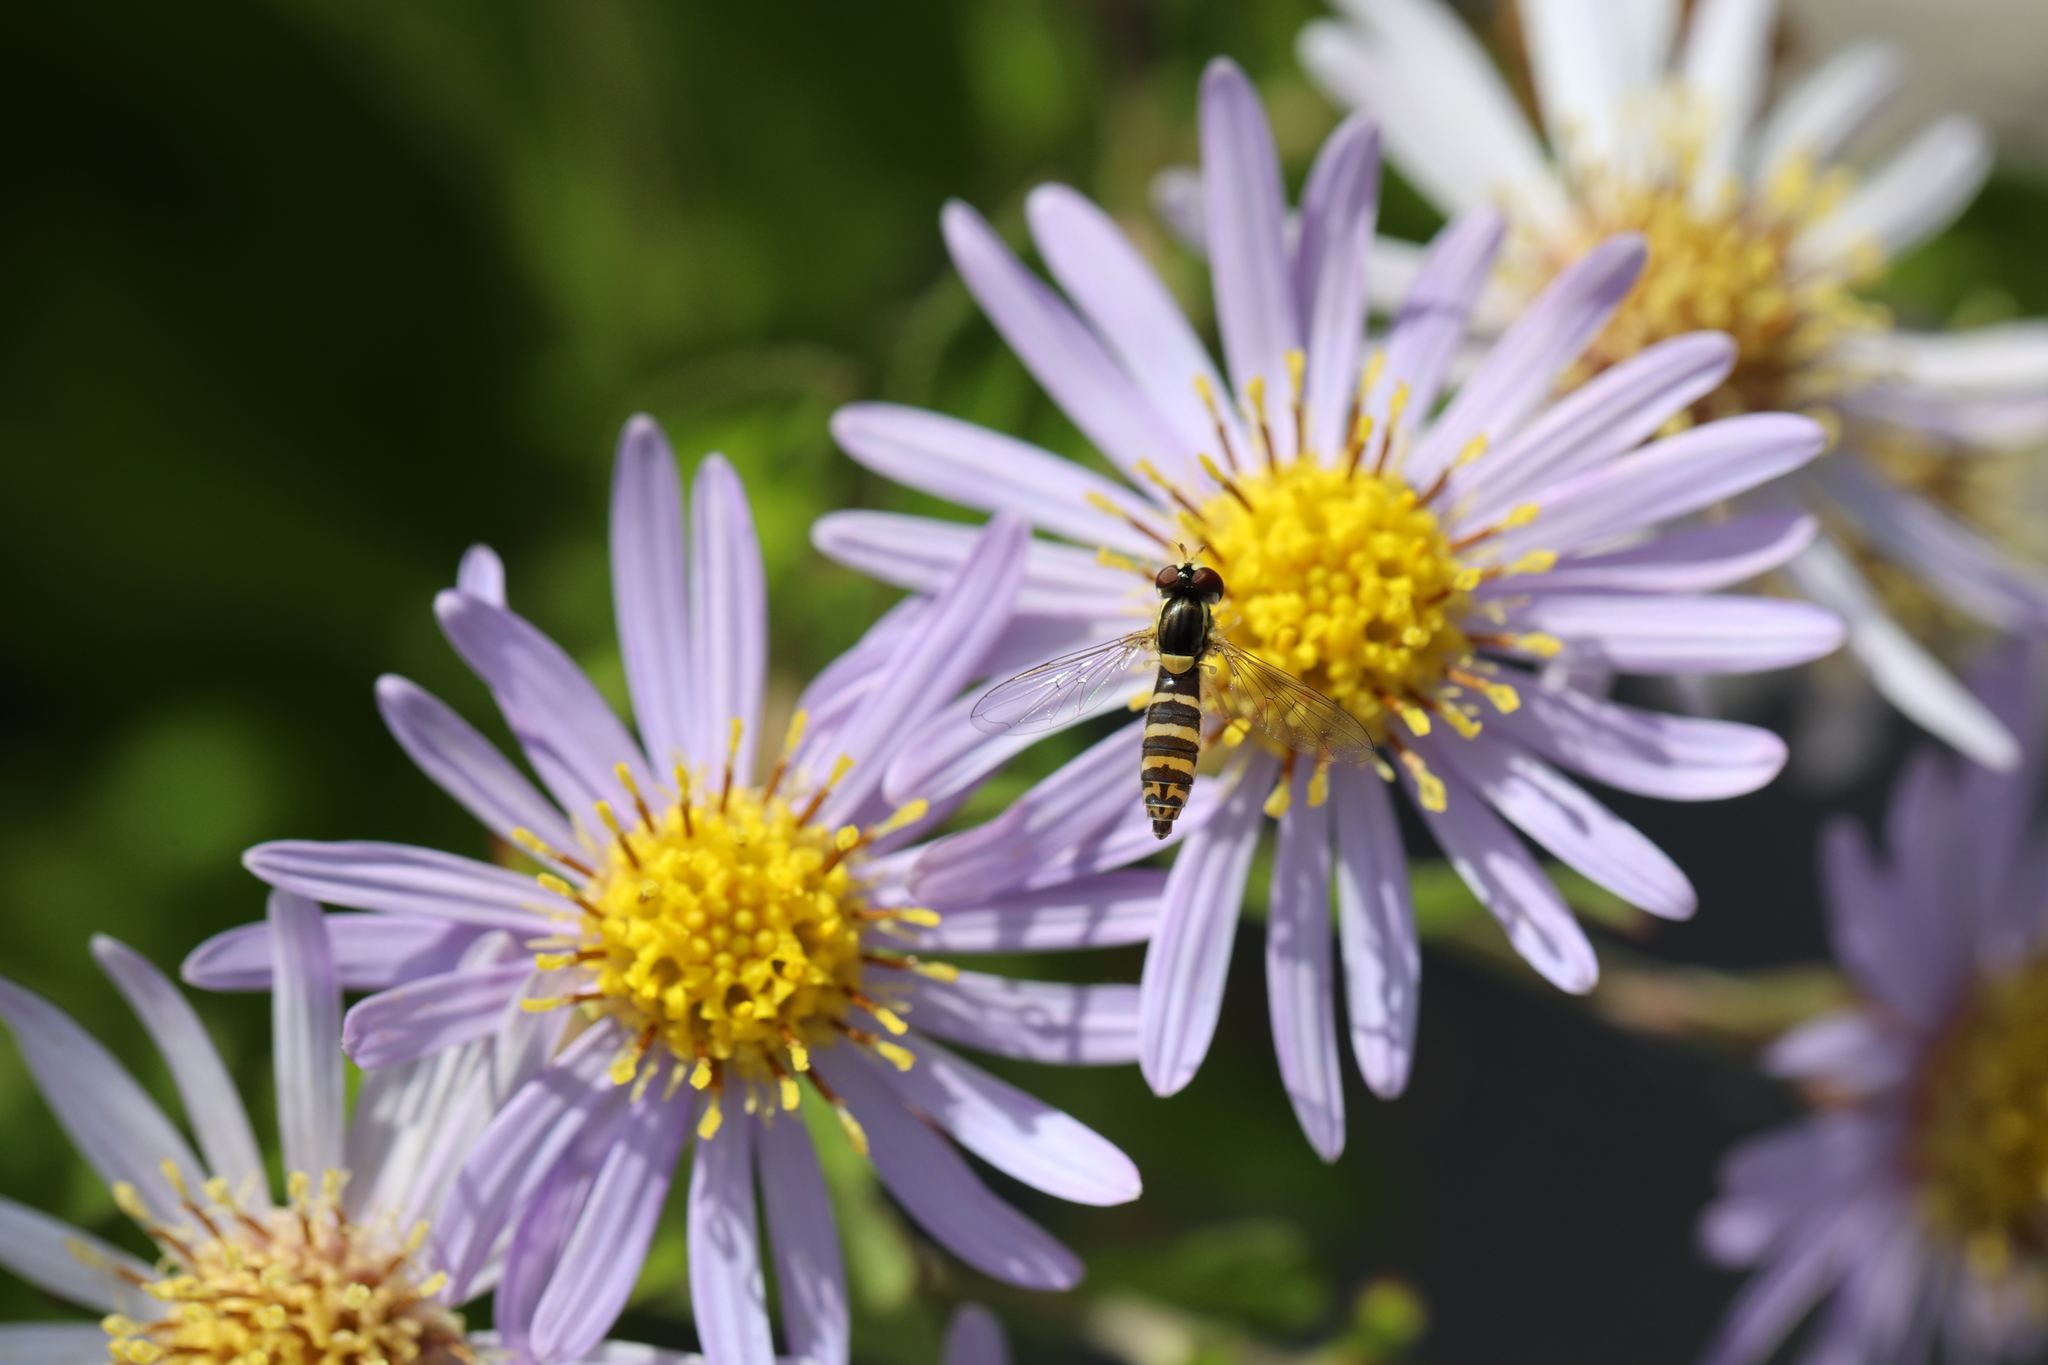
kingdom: Animalia
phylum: Arthropoda
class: Insecta
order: Diptera
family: Syrphidae
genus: Sphaerophoria
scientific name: Sphaerophoria
